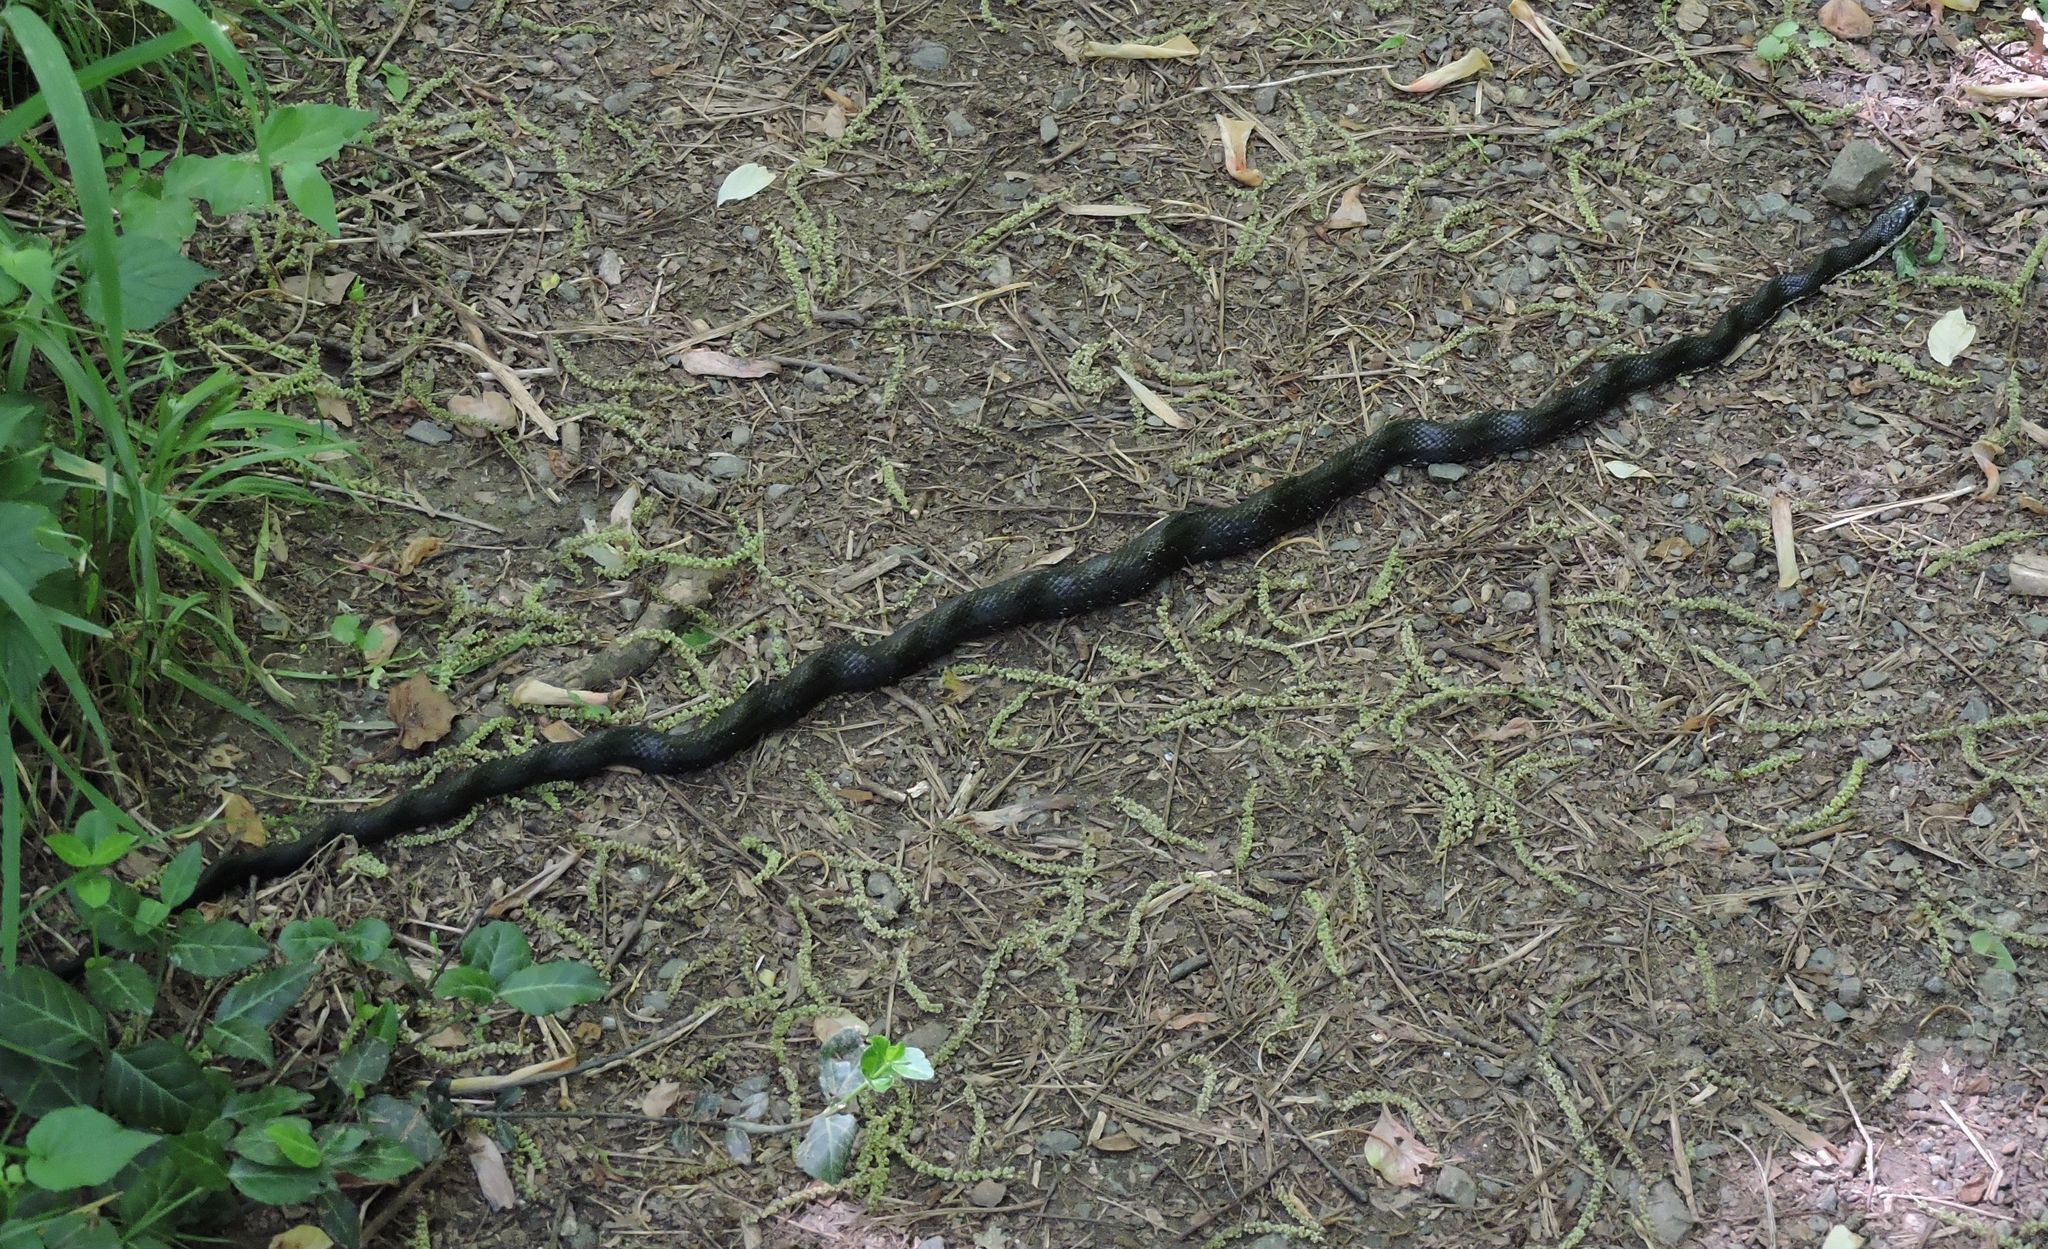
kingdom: Animalia
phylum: Chordata
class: Squamata
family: Colubridae
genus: Pantherophis
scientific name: Pantherophis alleghaniensis
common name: Eastern rat snake
